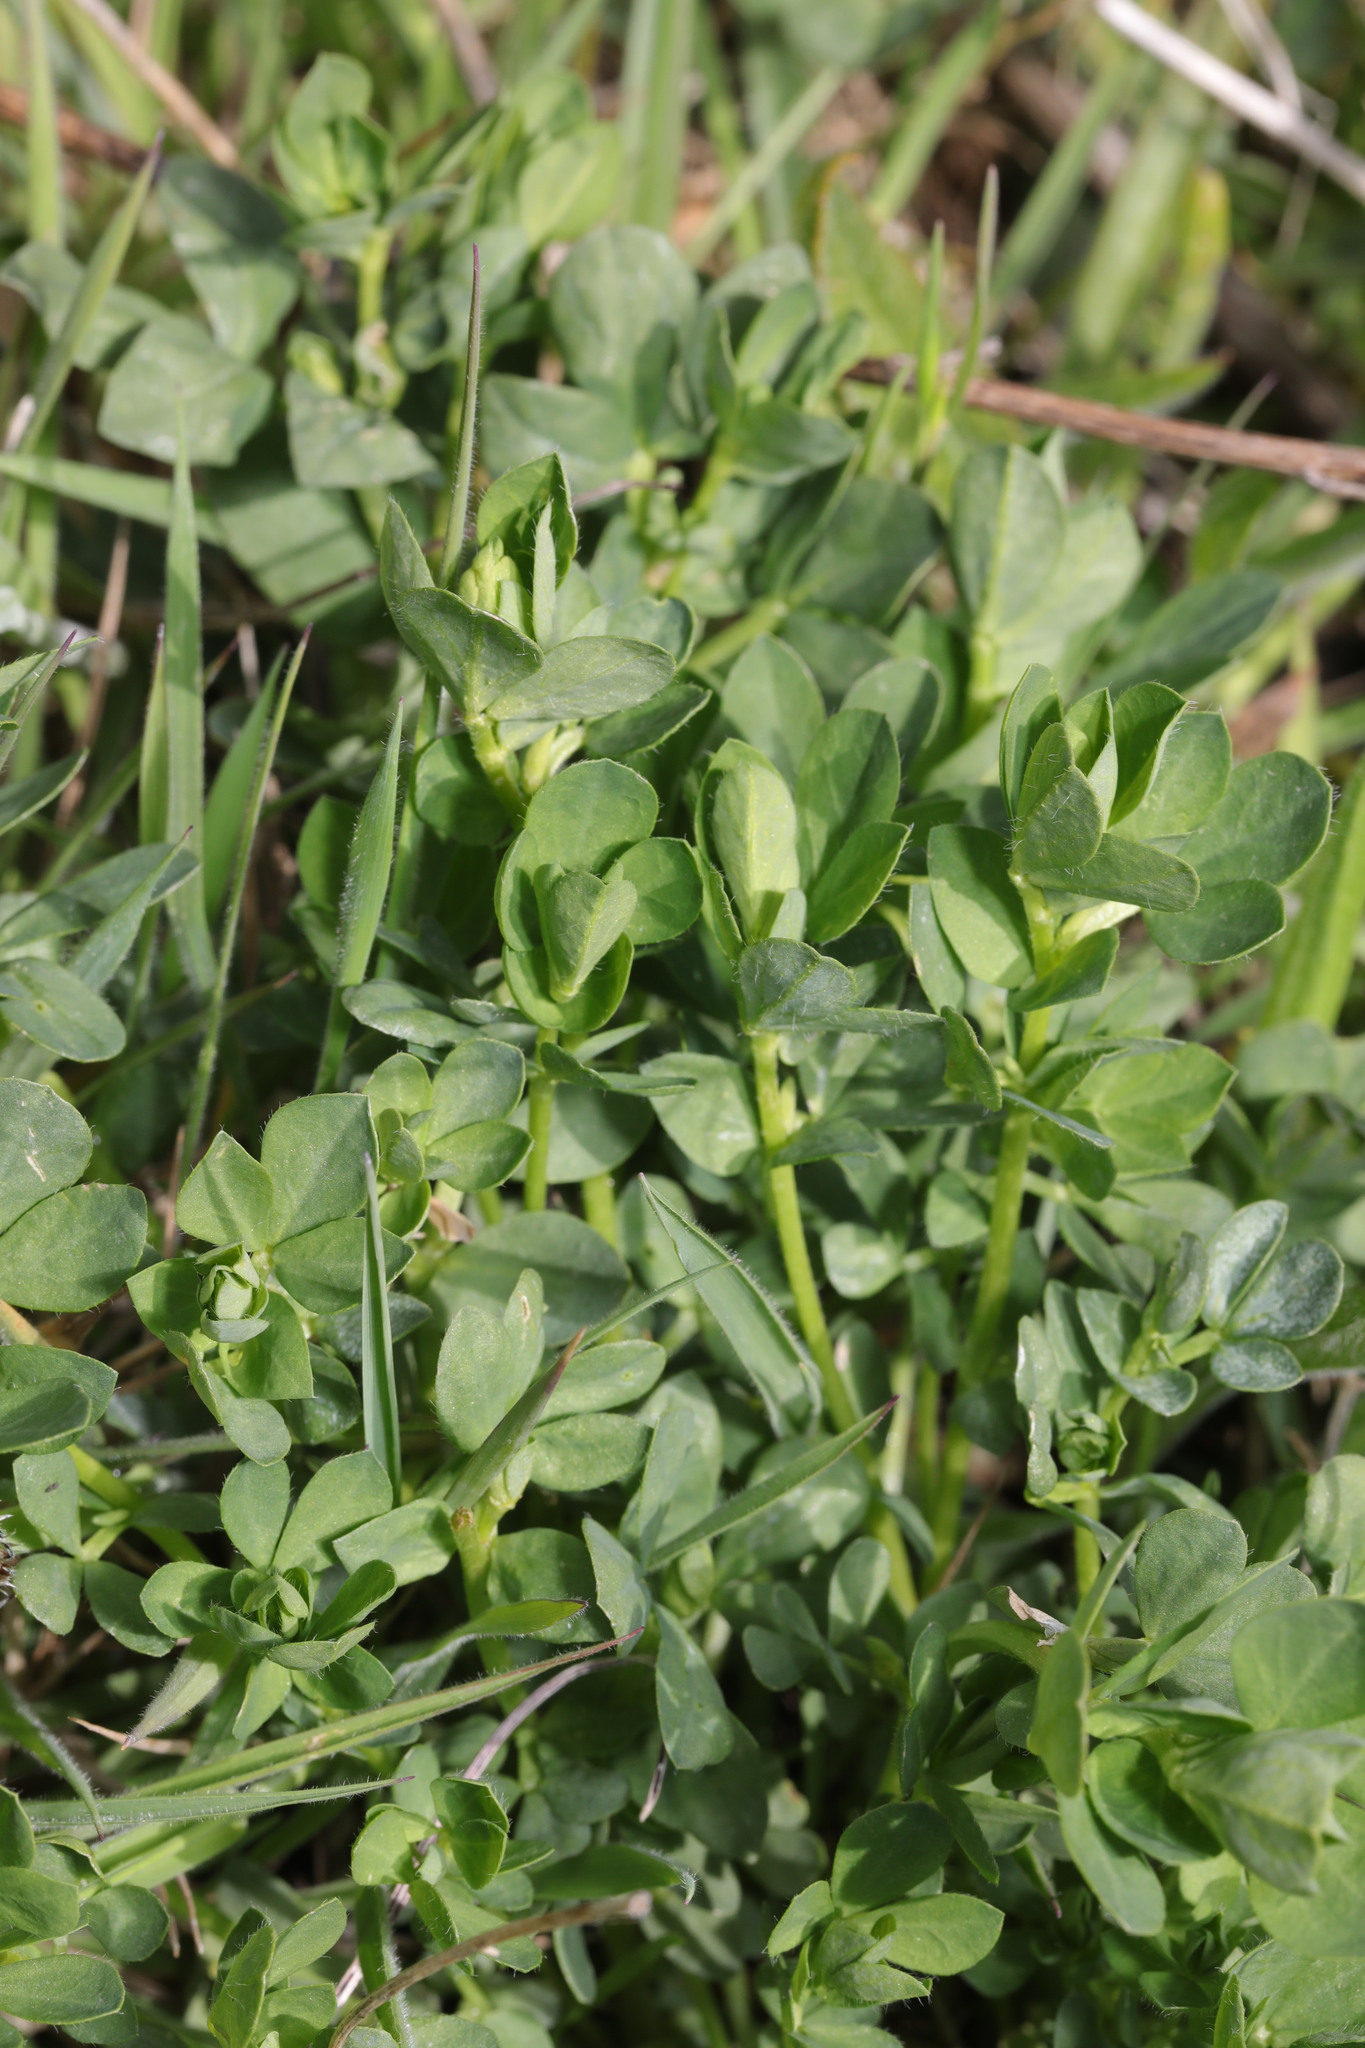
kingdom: Plantae
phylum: Tracheophyta
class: Magnoliopsida
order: Fabales
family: Fabaceae
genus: Lotus
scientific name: Lotus corniculatus
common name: Common bird's-foot-trefoil
